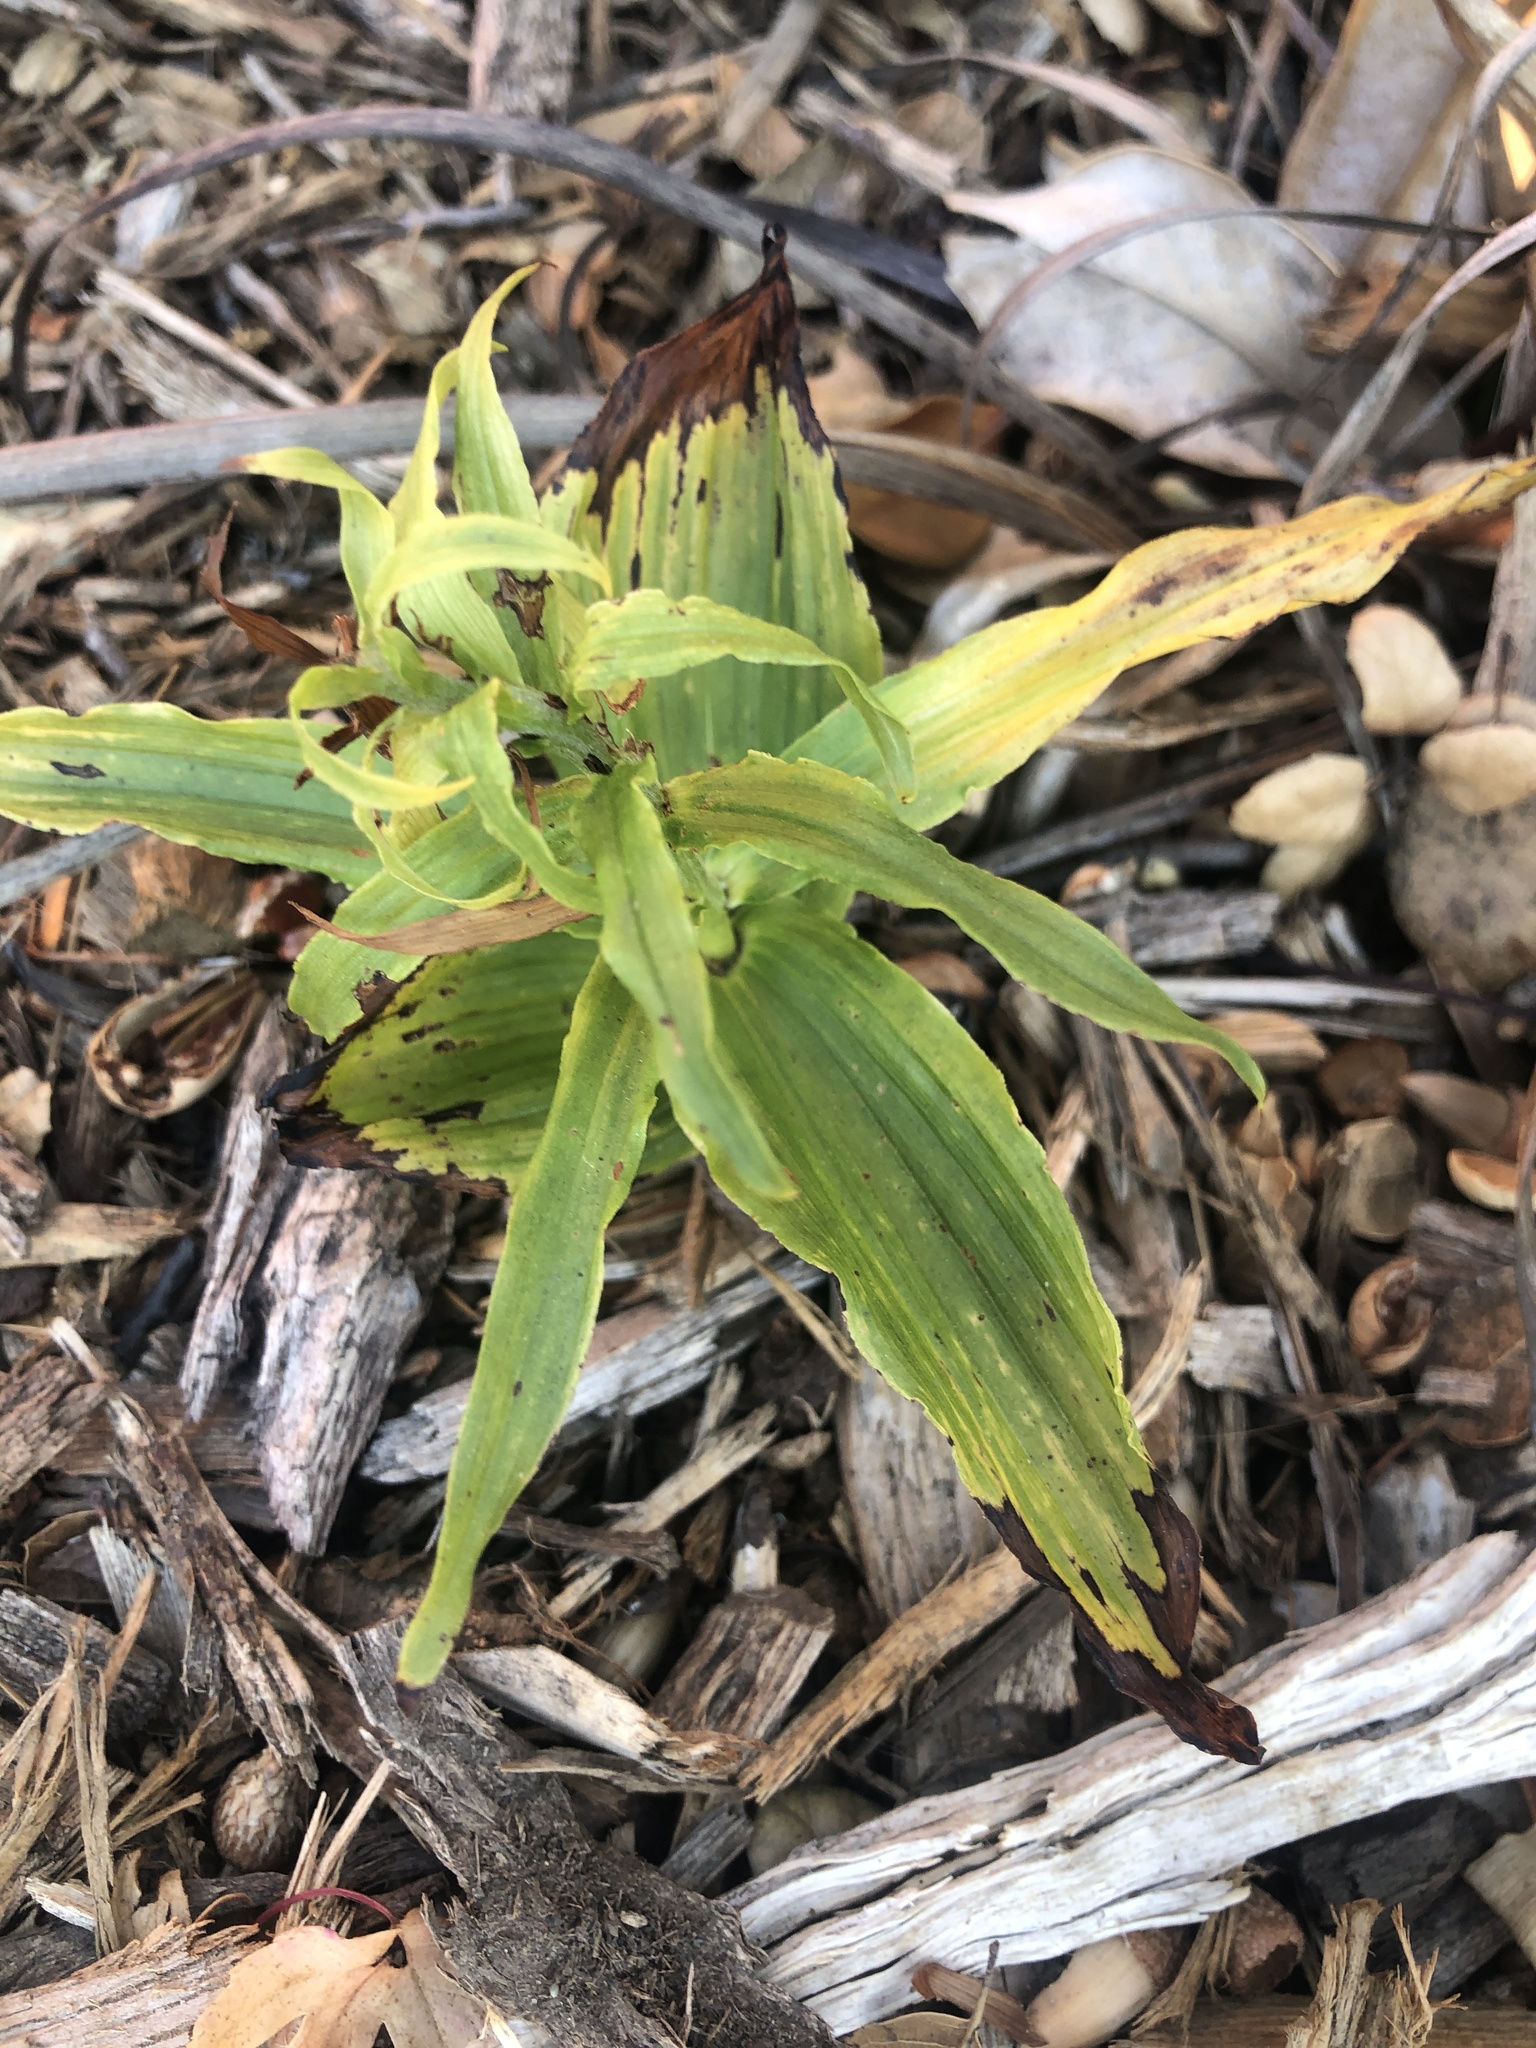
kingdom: Plantae
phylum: Tracheophyta
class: Liliopsida
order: Asparagales
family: Orchidaceae
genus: Epipactis
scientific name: Epipactis helleborine
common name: Broad-leaved helleborine
